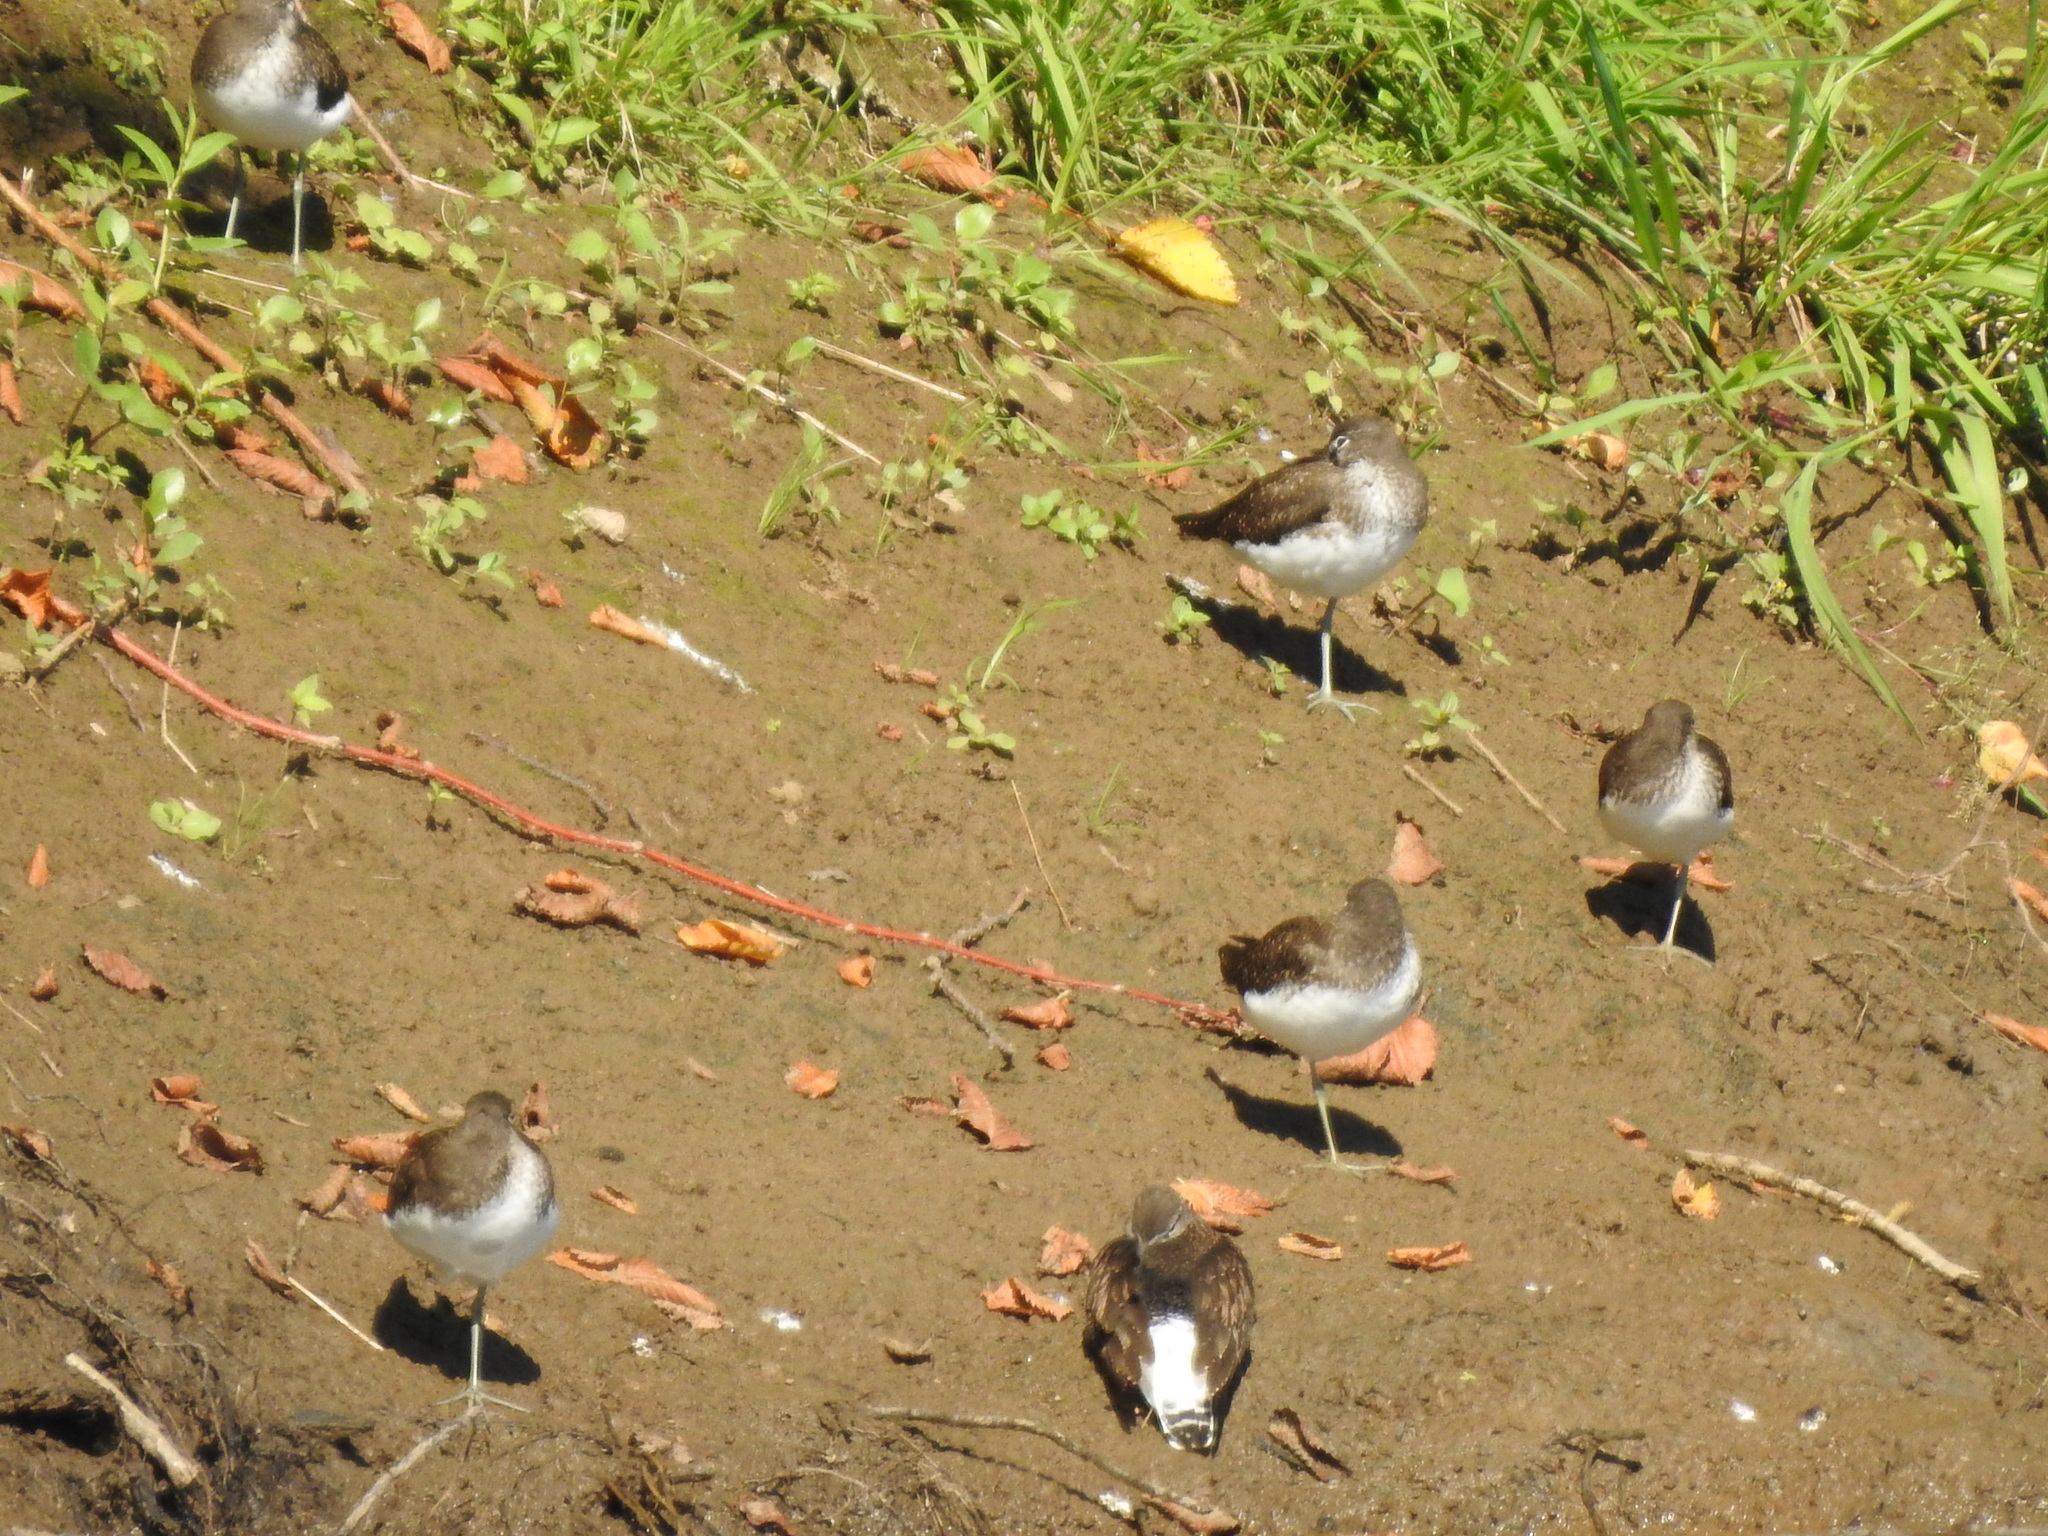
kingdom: Animalia
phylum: Chordata
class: Aves
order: Charadriiformes
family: Scolopacidae
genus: Tringa
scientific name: Tringa ochropus
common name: Green sandpiper
